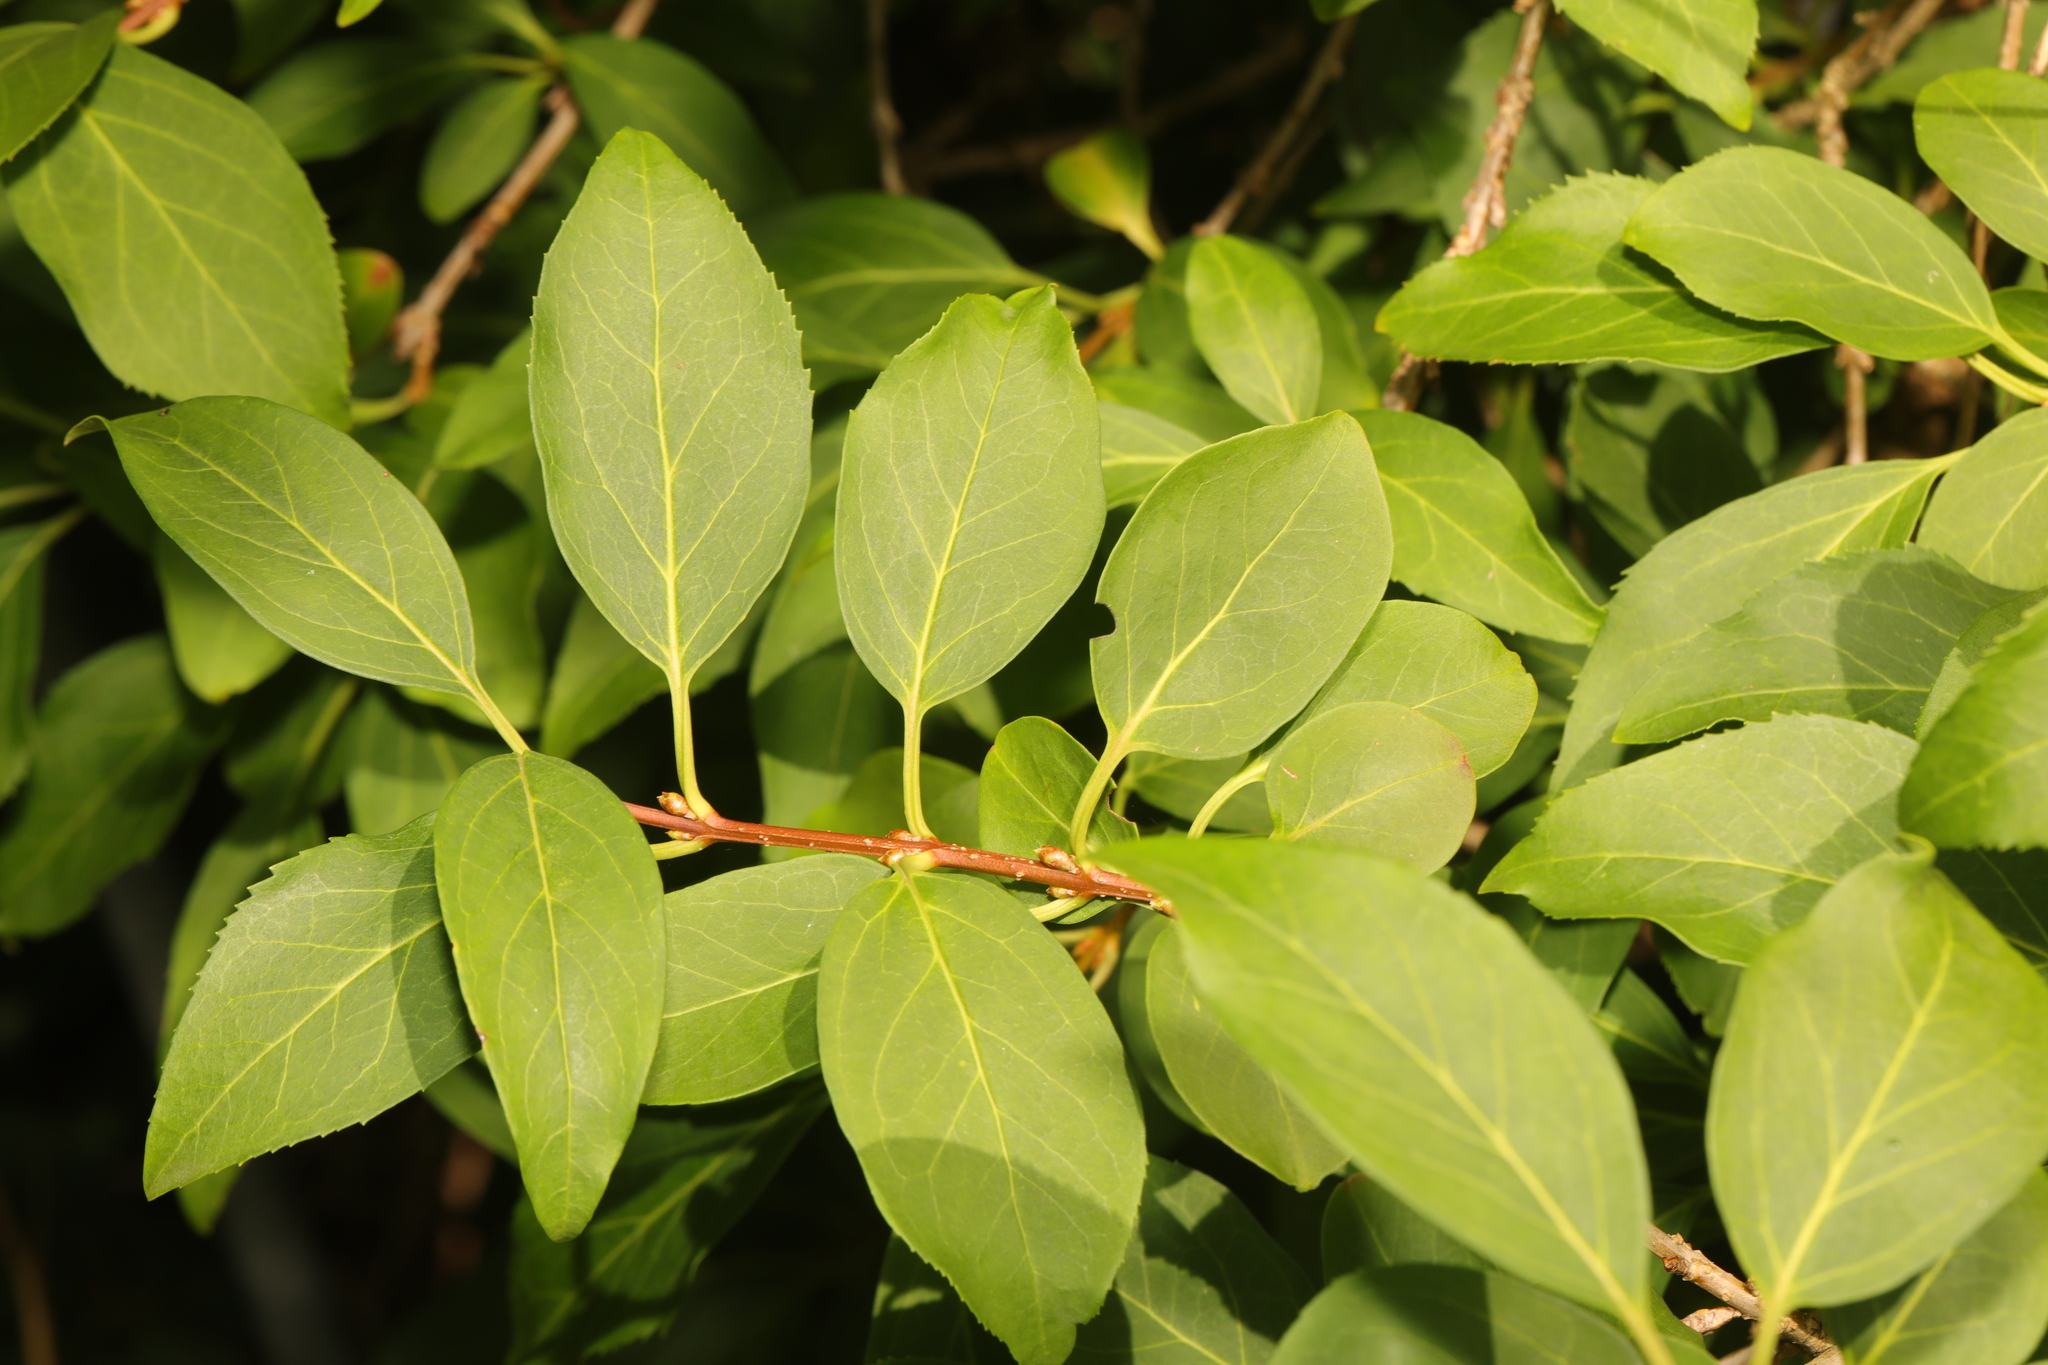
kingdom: Plantae
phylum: Tracheophyta
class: Magnoliopsida
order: Lamiales
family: Oleaceae
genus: Forsythia
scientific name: Forsythia intermedia
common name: Forsythia
